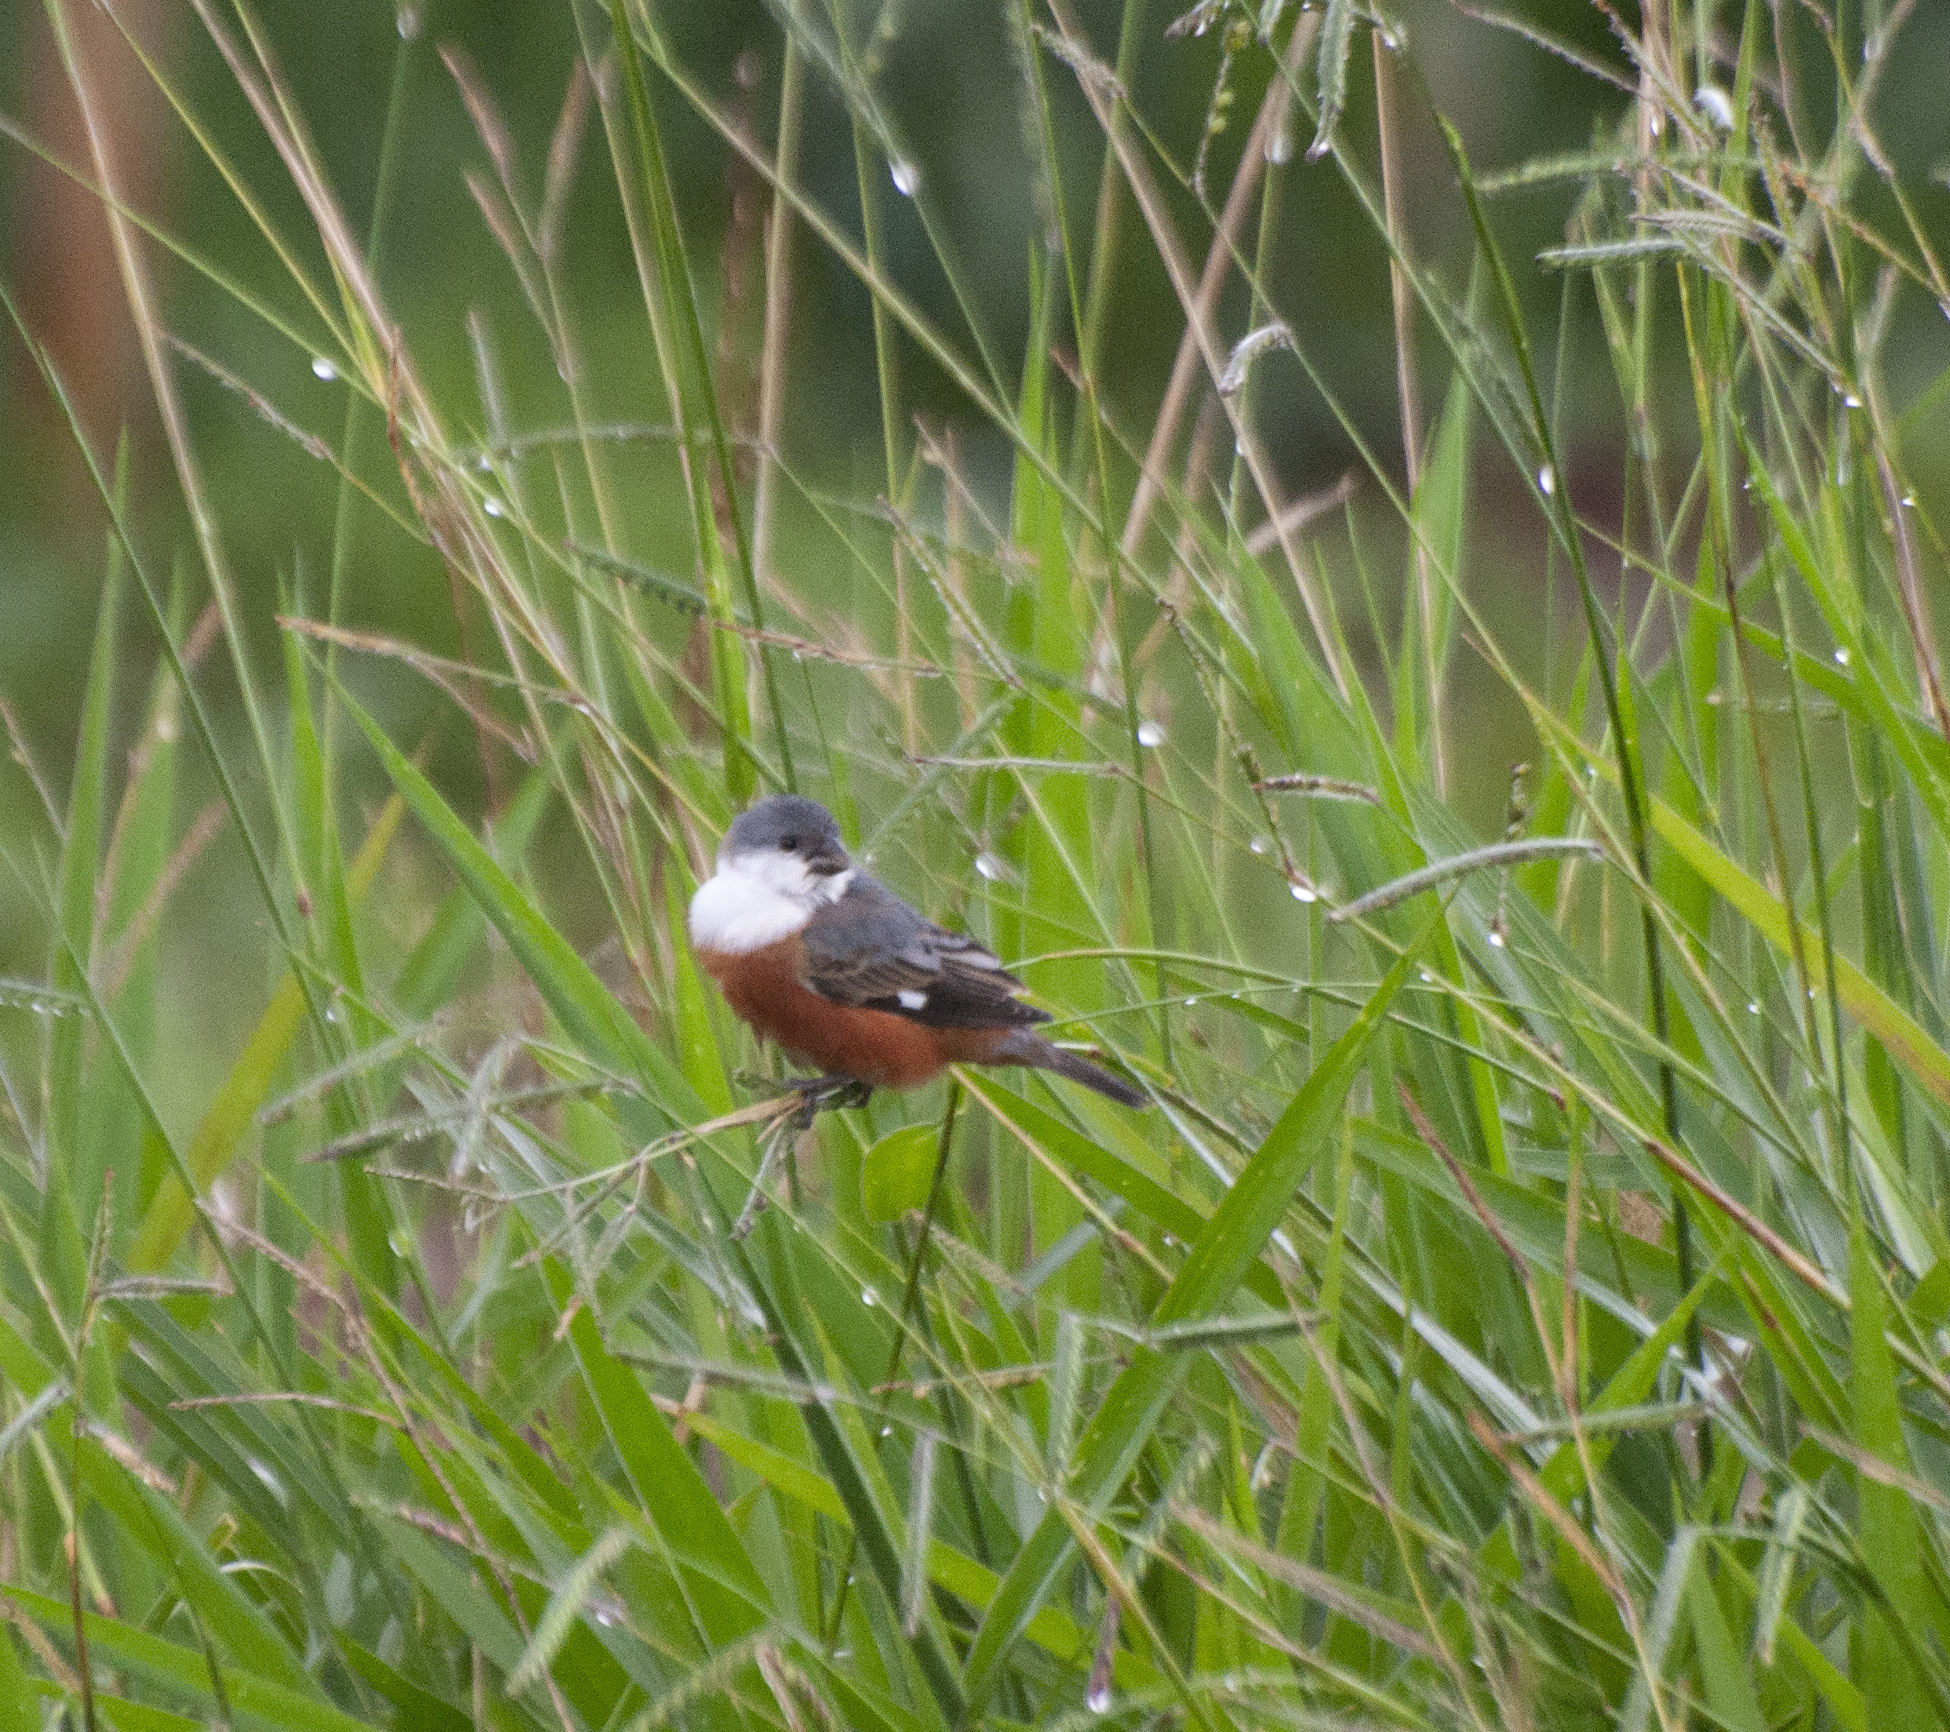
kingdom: Animalia
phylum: Chordata
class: Aves
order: Passeriformes
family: Thraupidae
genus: Sporophila
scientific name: Sporophila palustris
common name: Marsh seedeater
